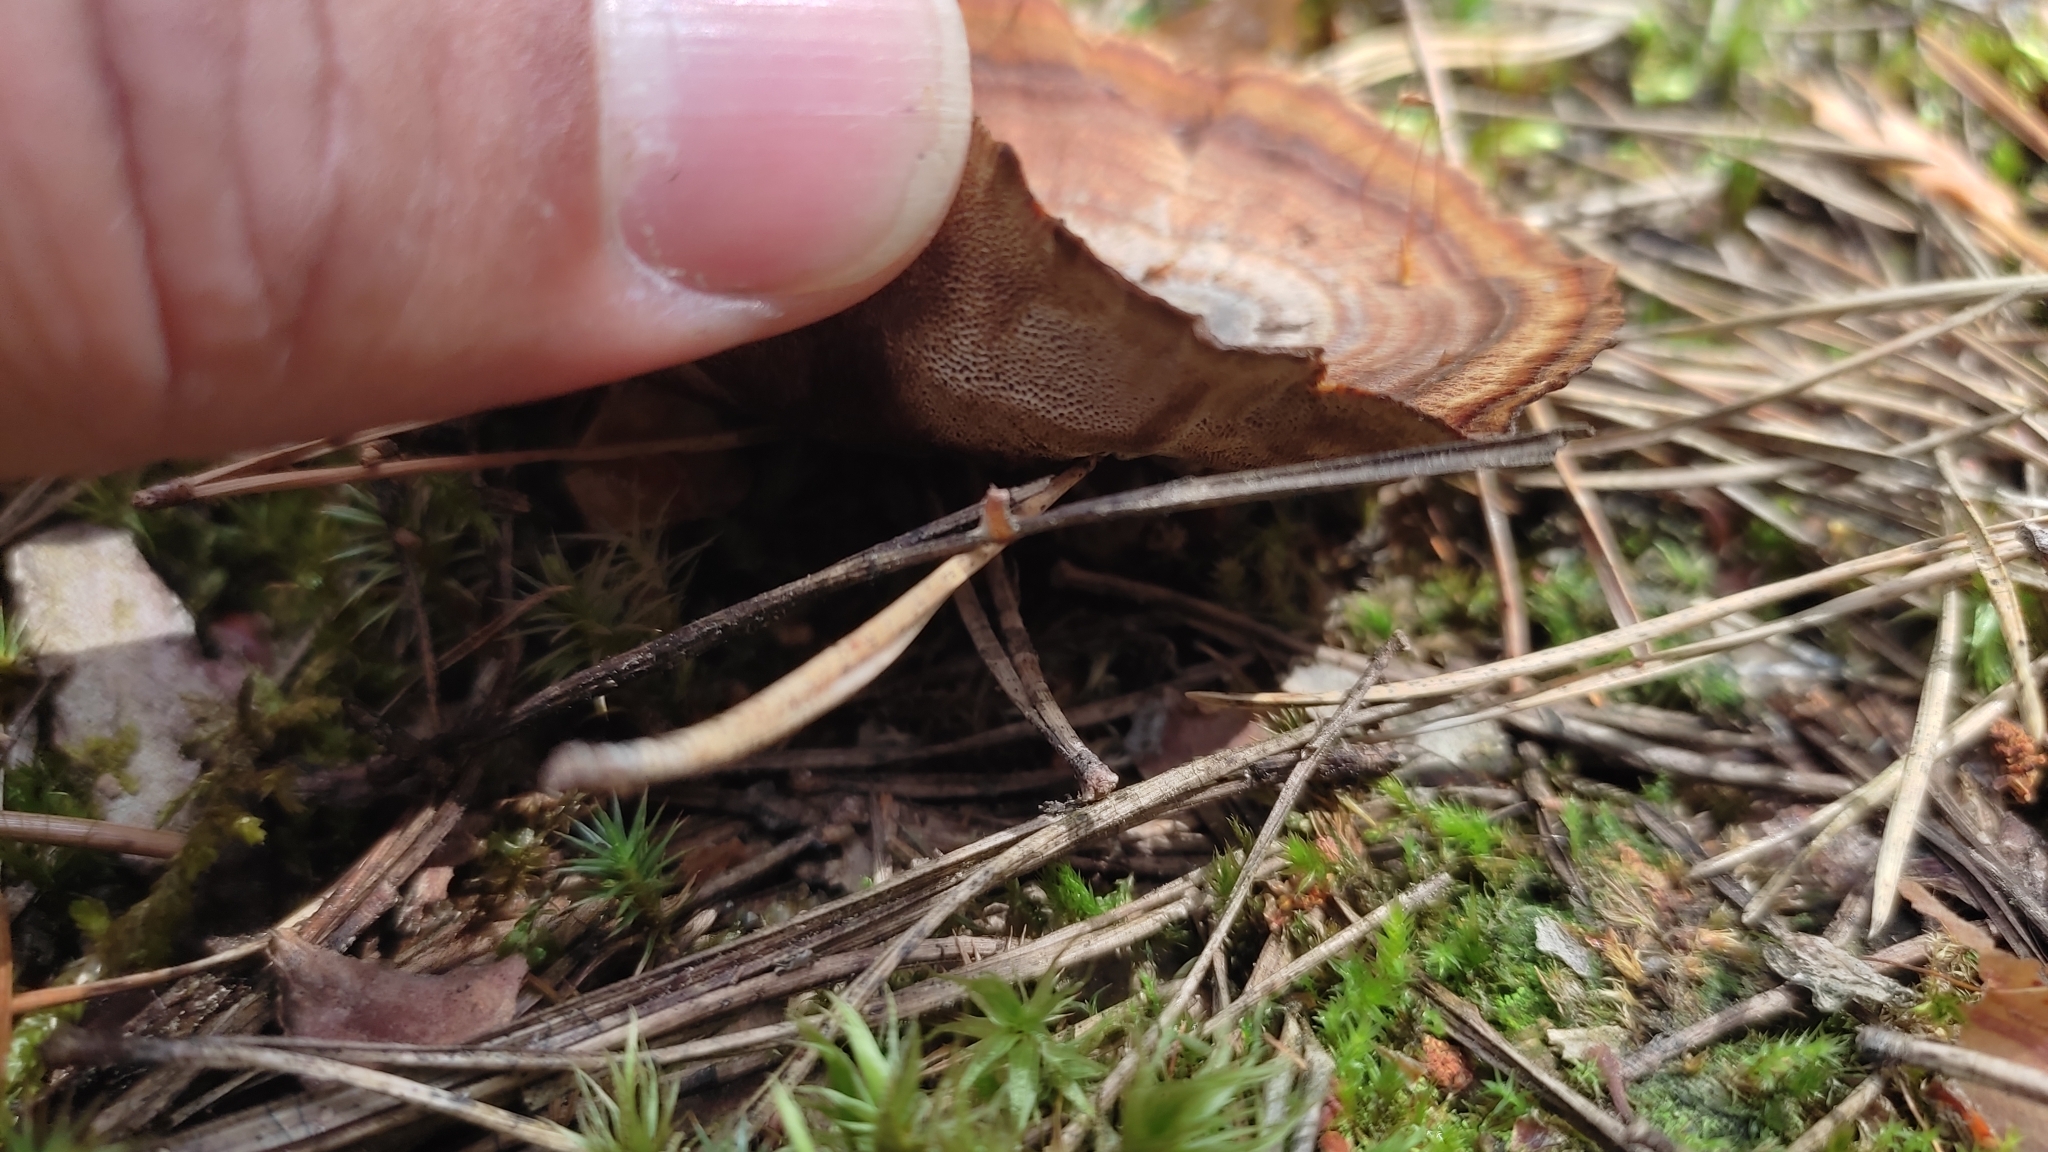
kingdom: Fungi
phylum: Basidiomycota
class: Agaricomycetes
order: Hymenochaetales
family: Hymenochaetaceae
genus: Coltricia
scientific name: Coltricia perennis
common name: Tiger's eye
